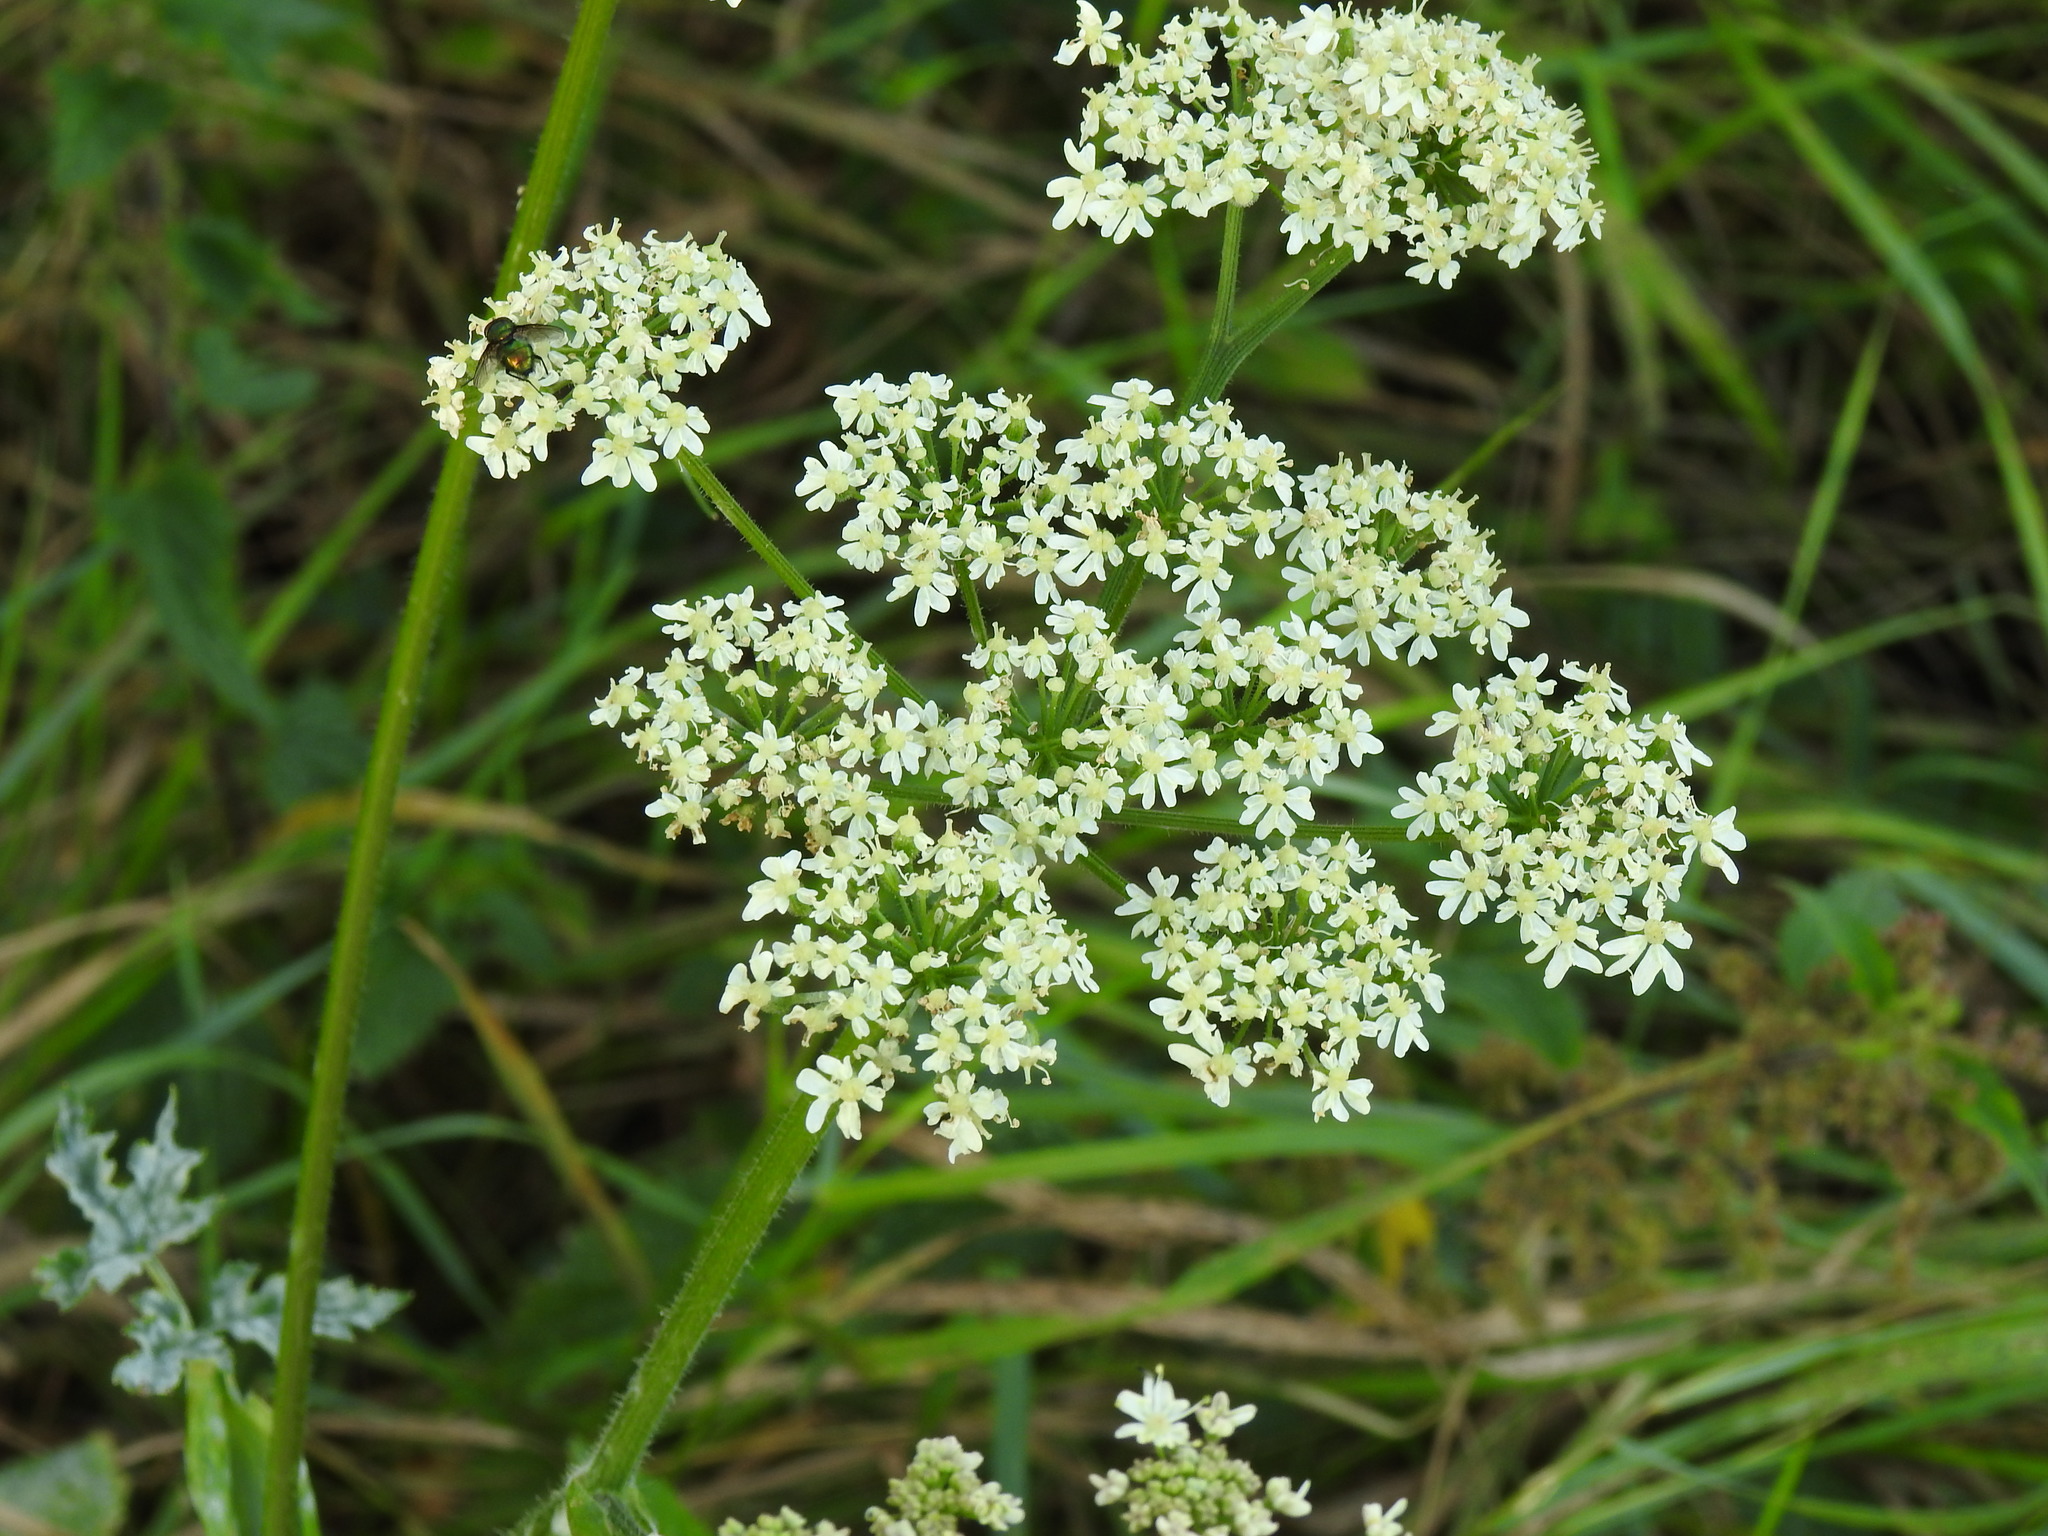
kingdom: Plantae
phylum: Tracheophyta
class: Magnoliopsida
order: Apiales
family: Apiaceae
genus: Heracleum
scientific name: Heracleum sphondylium
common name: Hogweed
